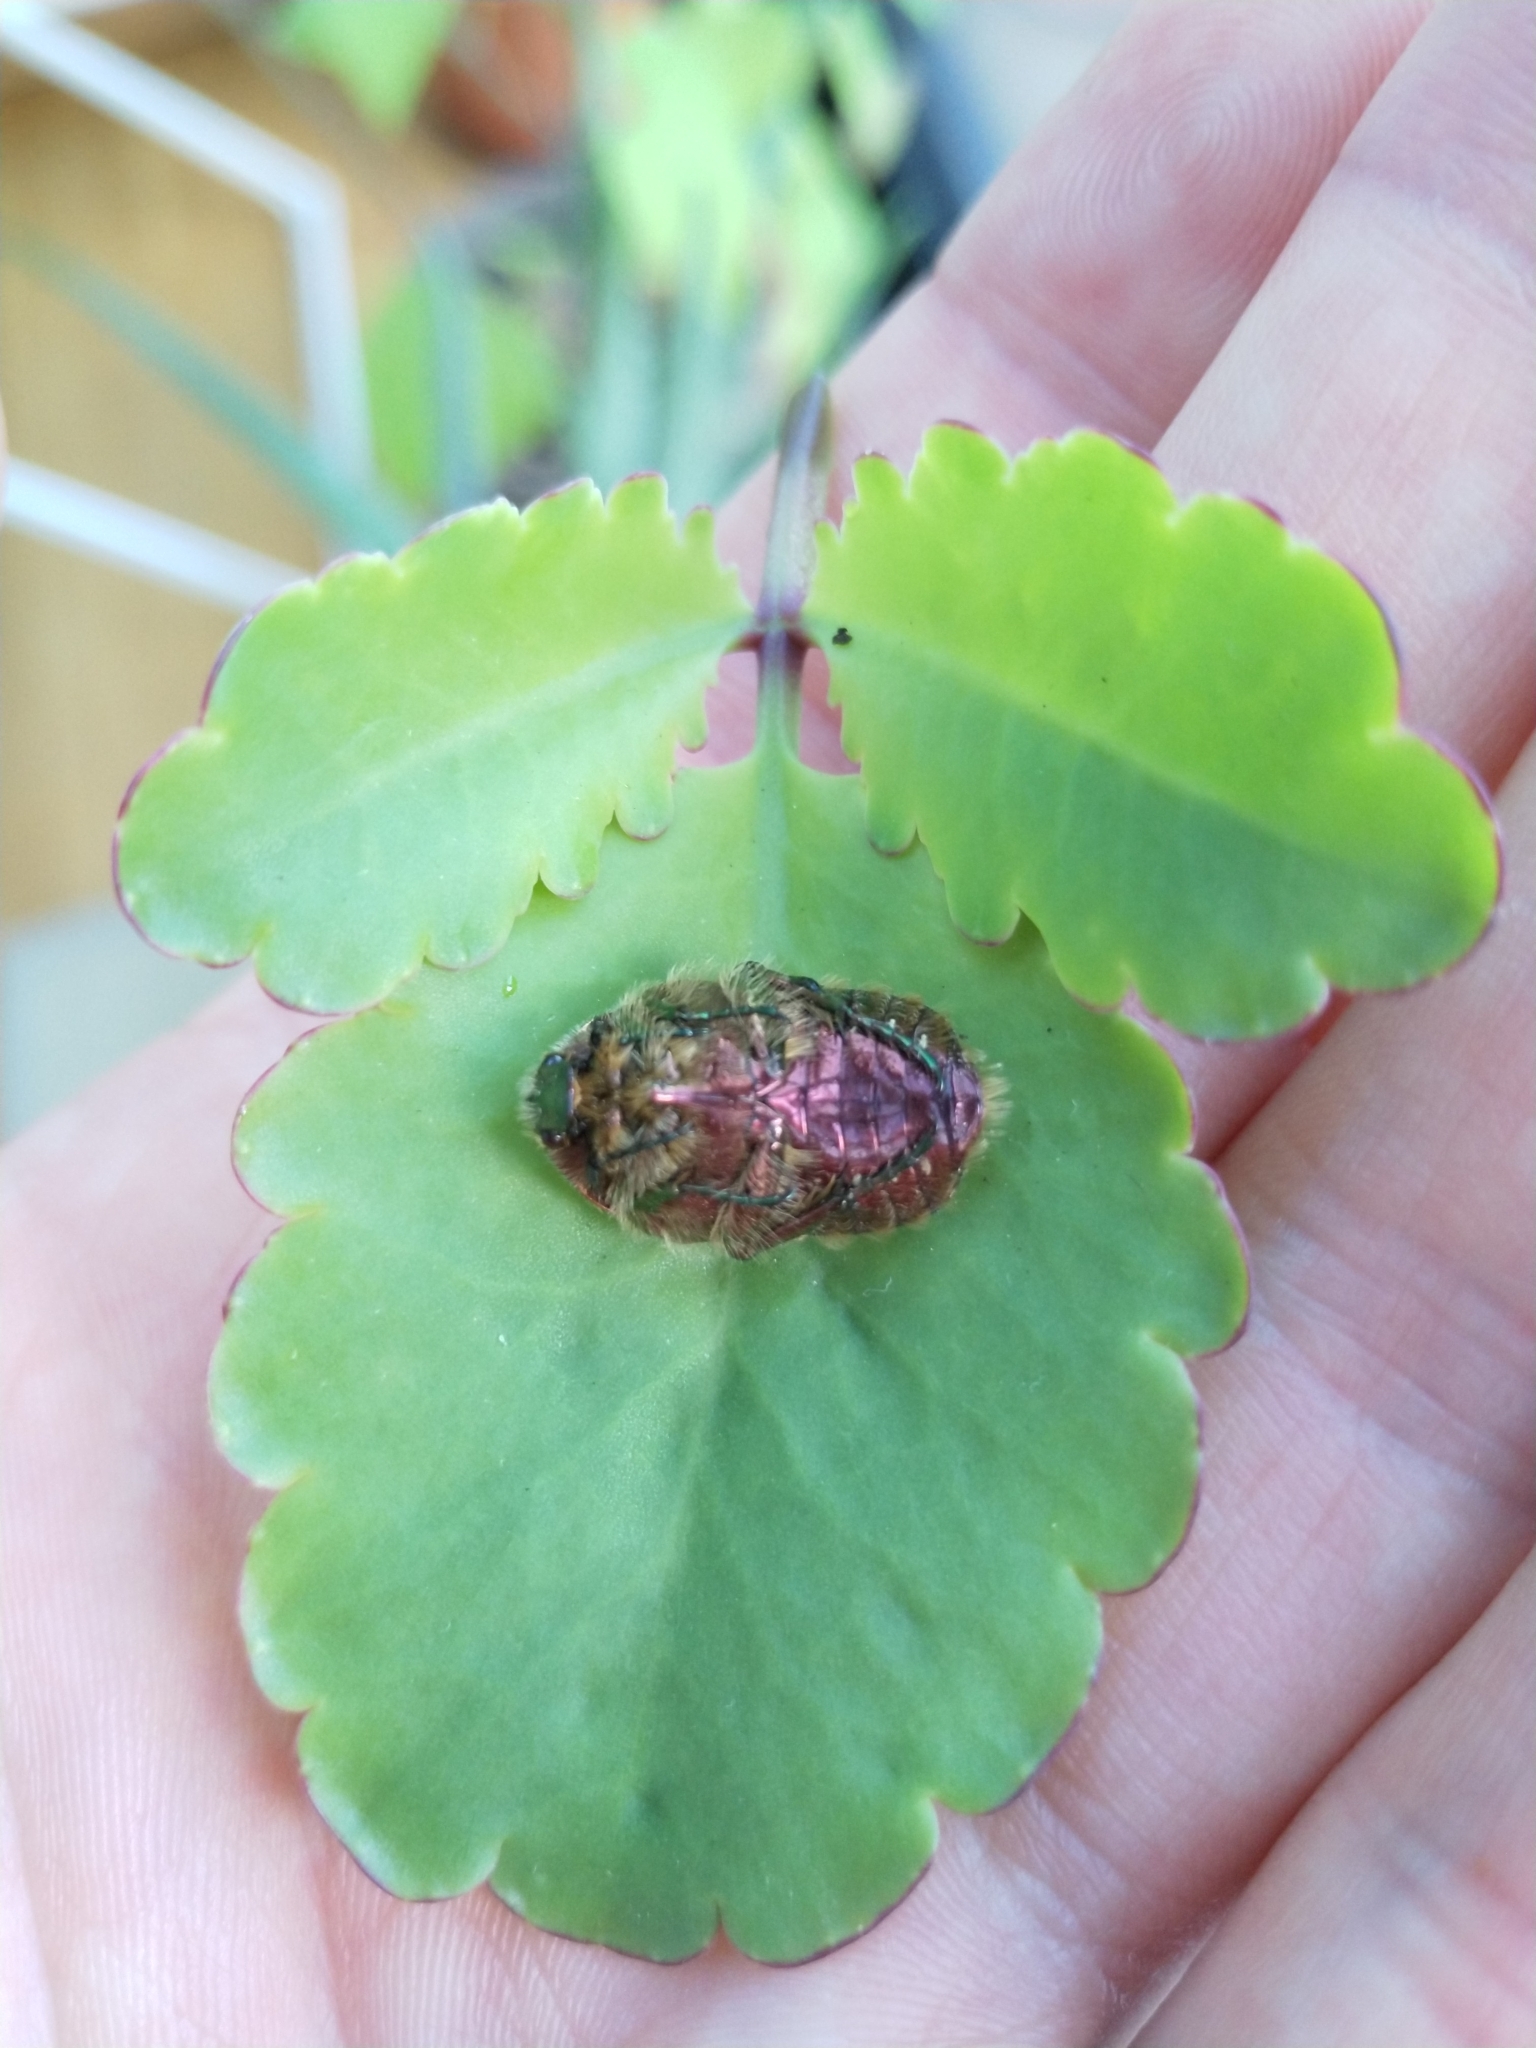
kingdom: Animalia
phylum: Arthropoda
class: Insecta
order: Coleoptera
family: Scarabaeidae
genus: Cetonia
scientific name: Cetonia aurata
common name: Rose chafer
